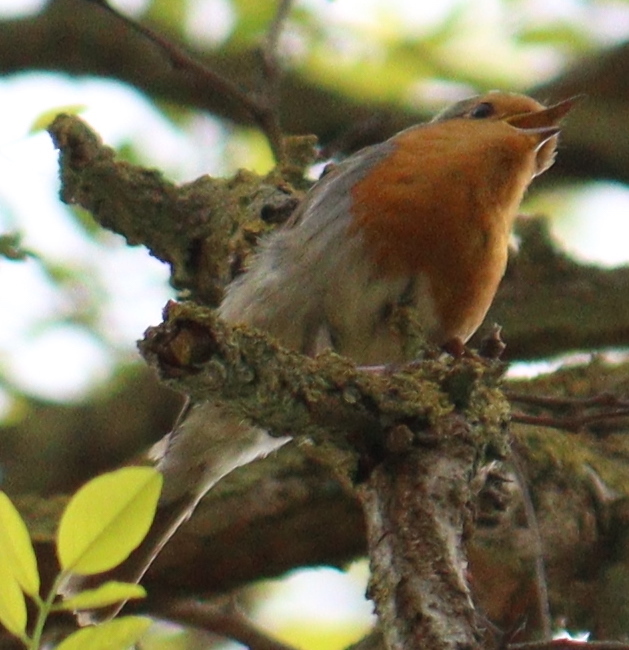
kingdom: Animalia
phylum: Chordata
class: Aves
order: Passeriformes
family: Muscicapidae
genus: Erithacus
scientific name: Erithacus rubecula
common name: European robin
